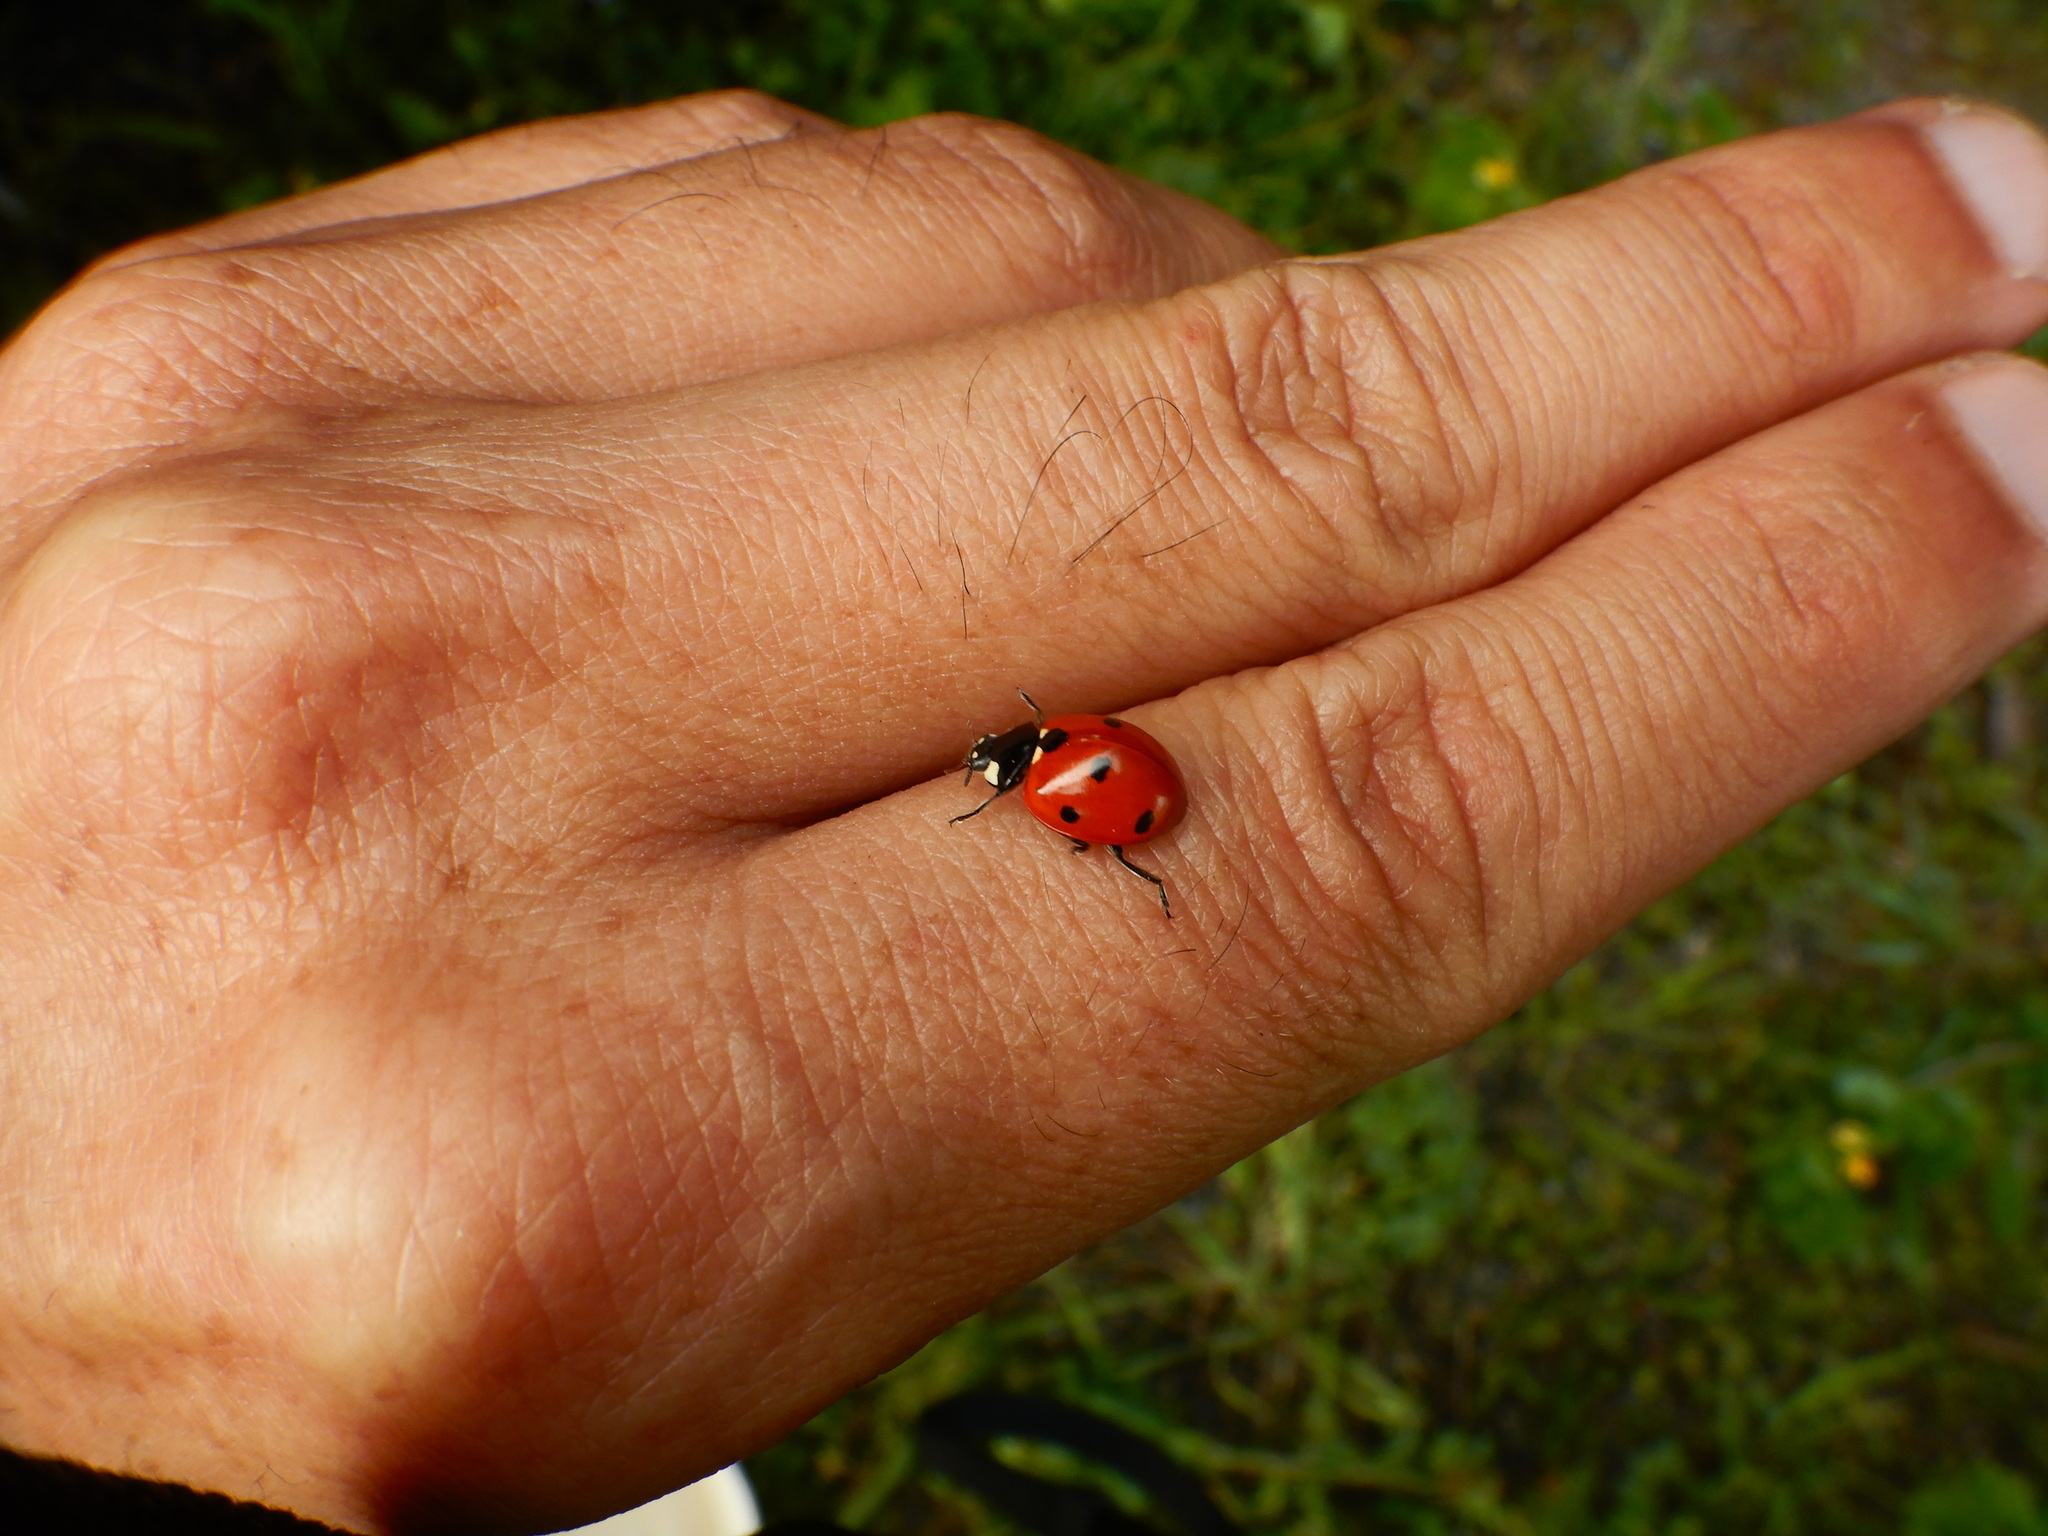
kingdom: Animalia
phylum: Arthropoda
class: Insecta
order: Coleoptera
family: Coccinellidae
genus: Coccinella
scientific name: Coccinella septempunctata
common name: Sevenspotted lady beetle
